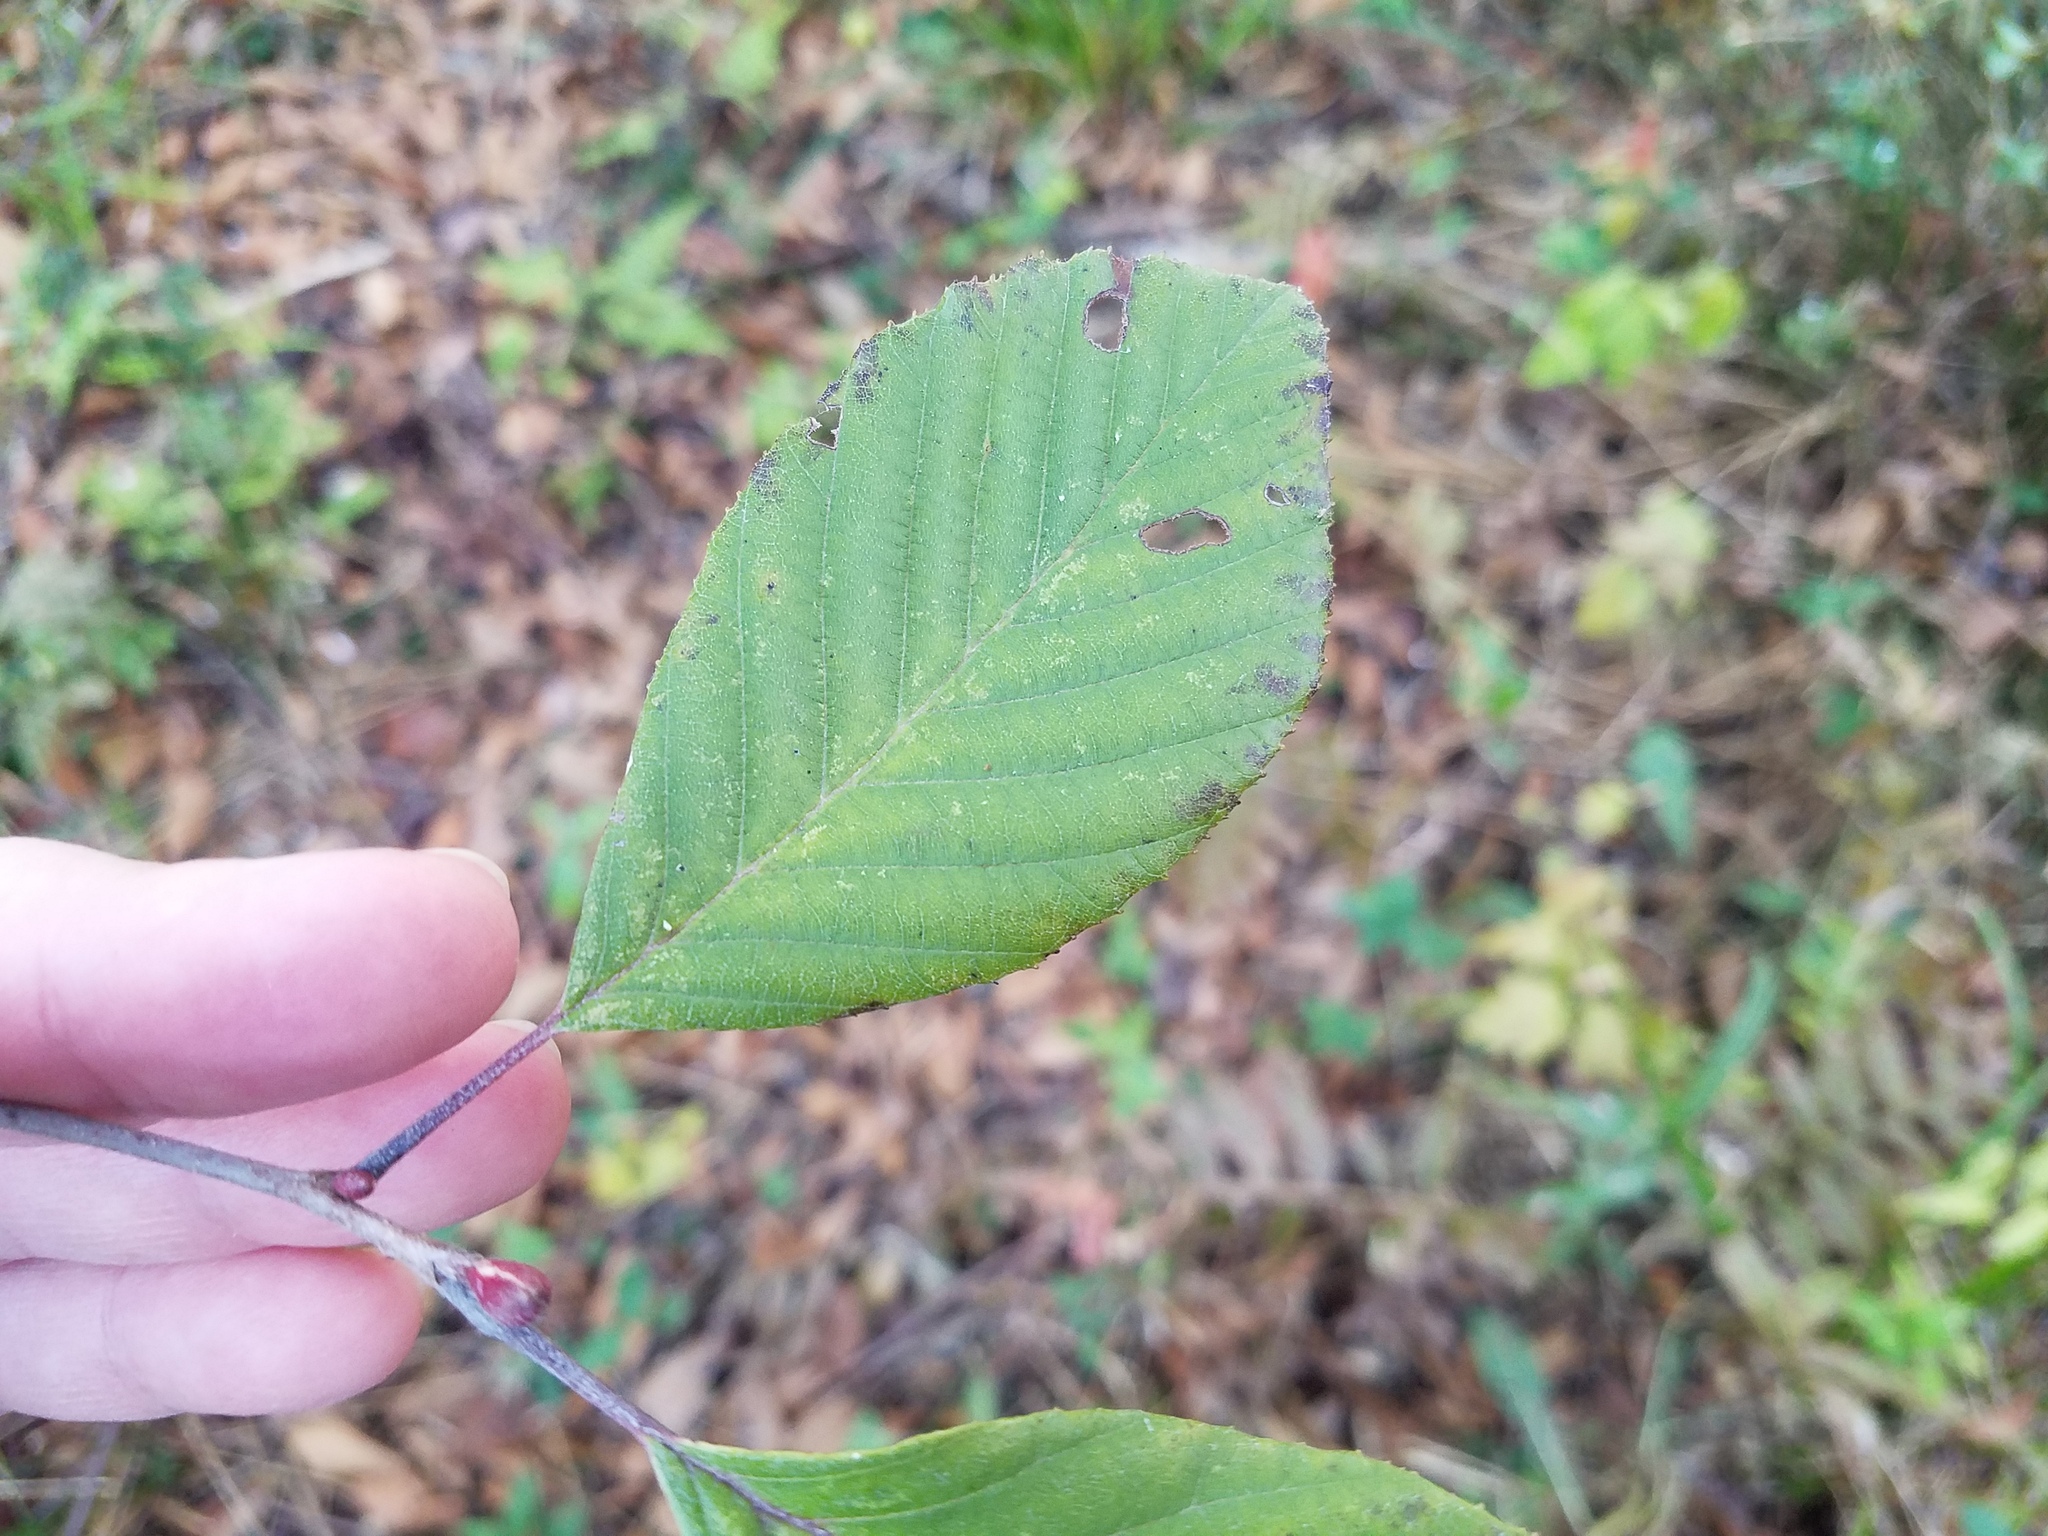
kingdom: Plantae
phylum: Tracheophyta
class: Magnoliopsida
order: Fagales
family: Betulaceae
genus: Alnus
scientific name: Alnus serrulata
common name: Hazel alder
